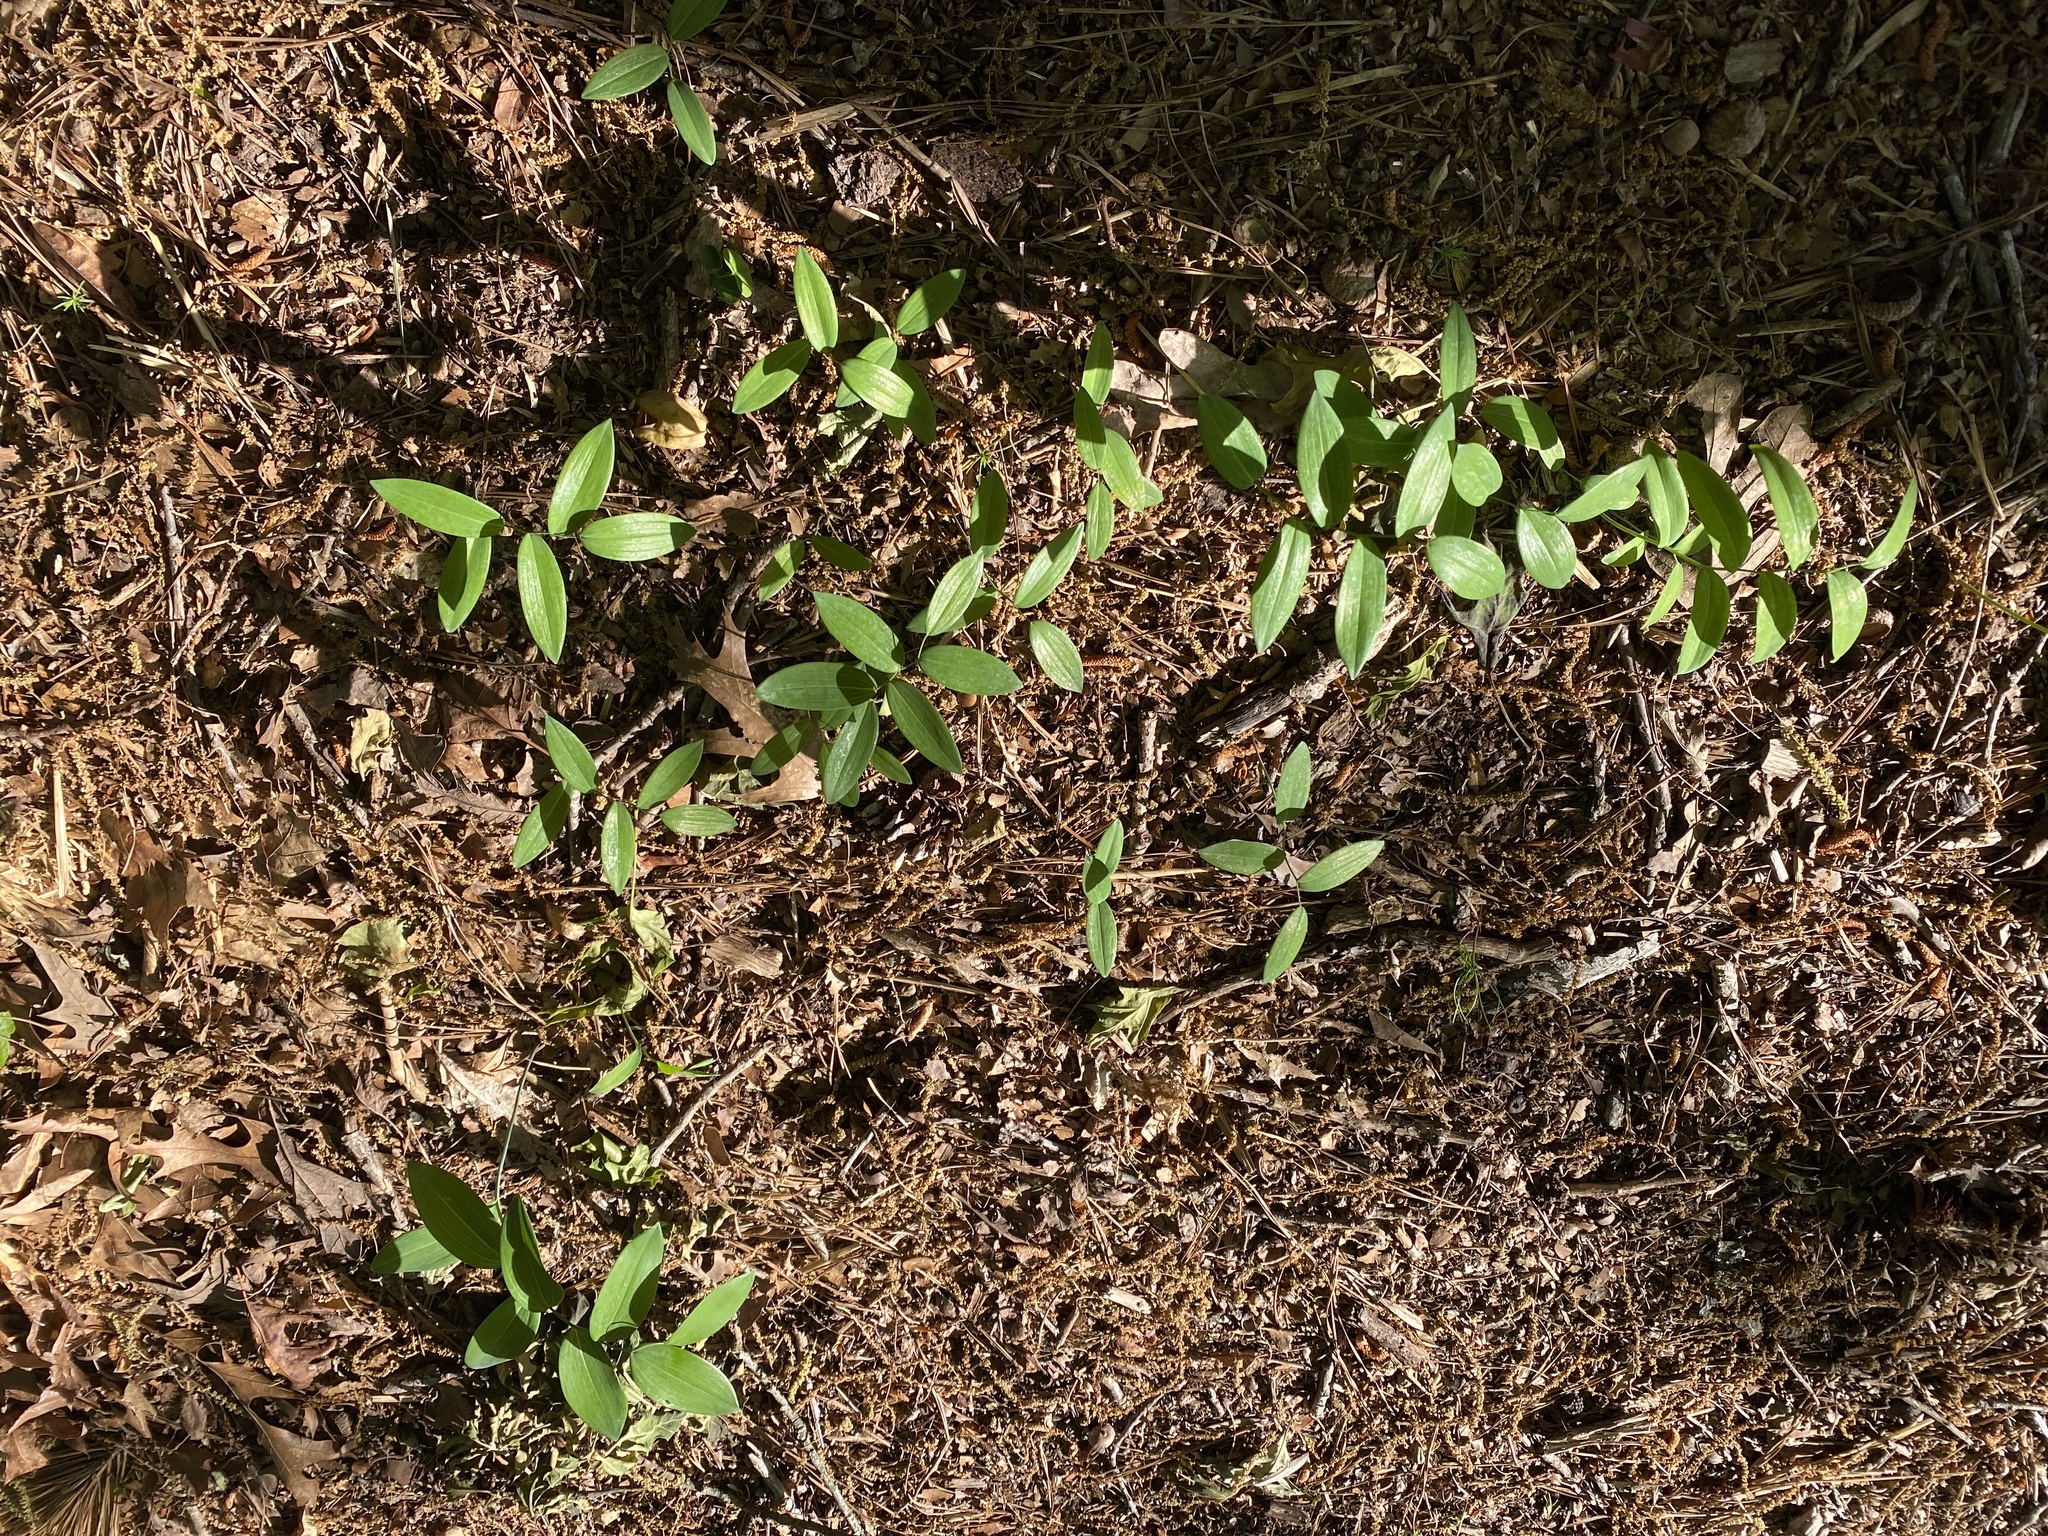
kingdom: Plantae
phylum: Tracheophyta
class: Liliopsida
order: Asparagales
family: Asparagaceae
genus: Polygonatum
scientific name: Polygonatum biflorum
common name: American solomon's-seal
